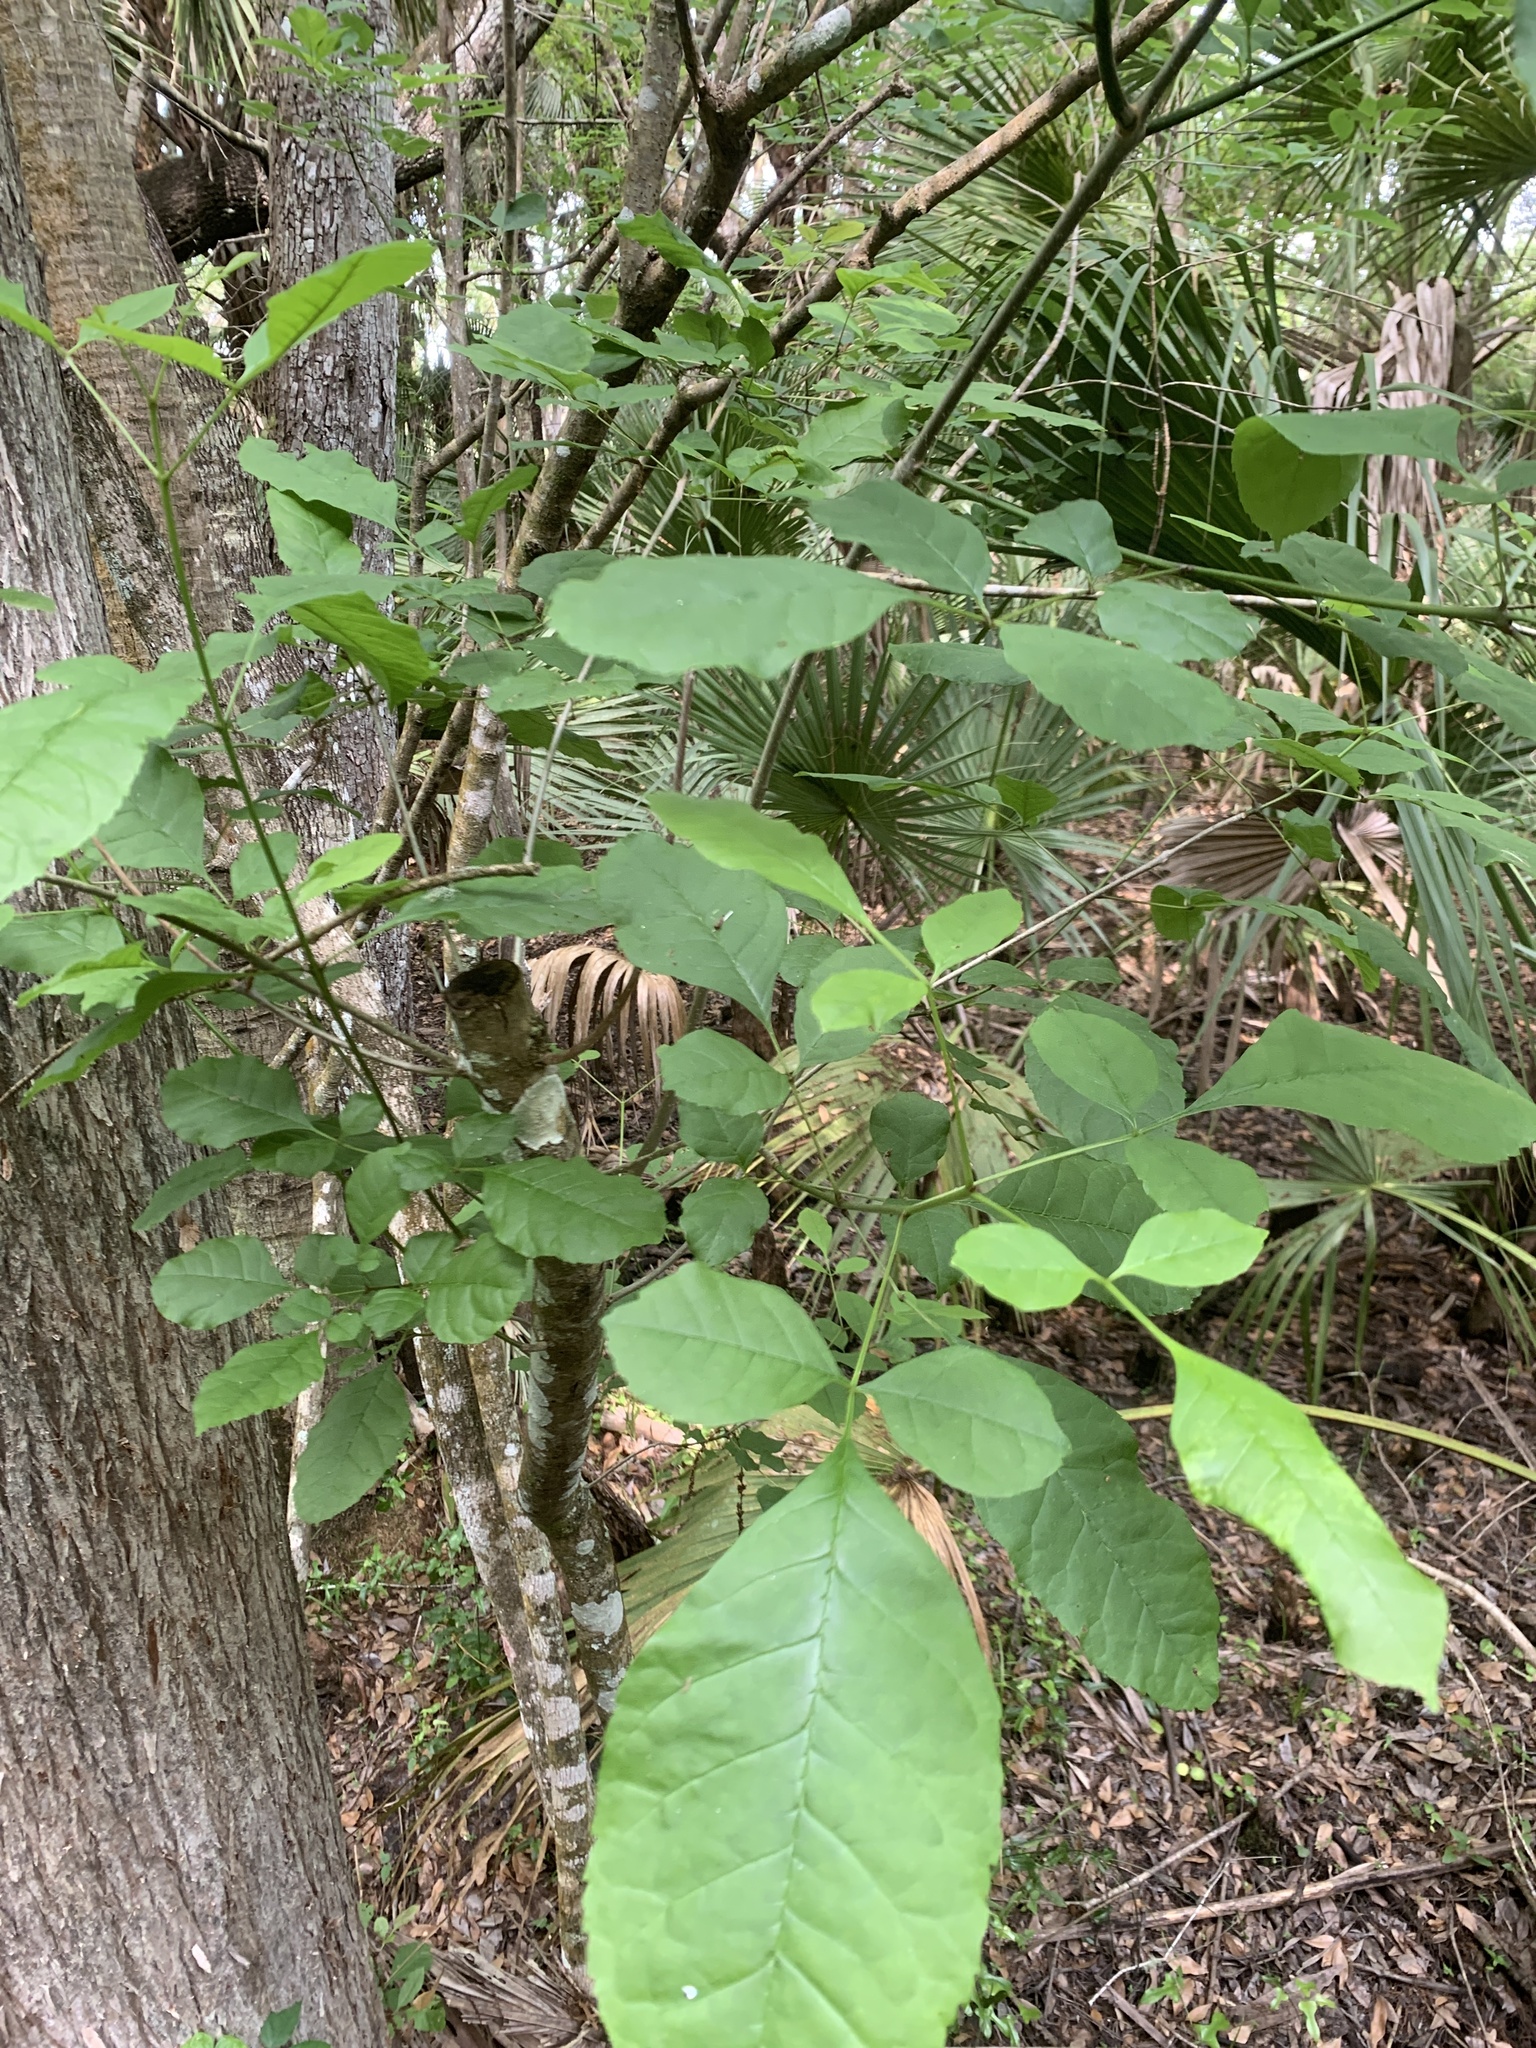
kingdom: Plantae
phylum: Tracheophyta
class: Magnoliopsida
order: Lamiales
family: Oleaceae
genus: Fraxinus
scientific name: Fraxinus caroliniana
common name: Carolina ash
